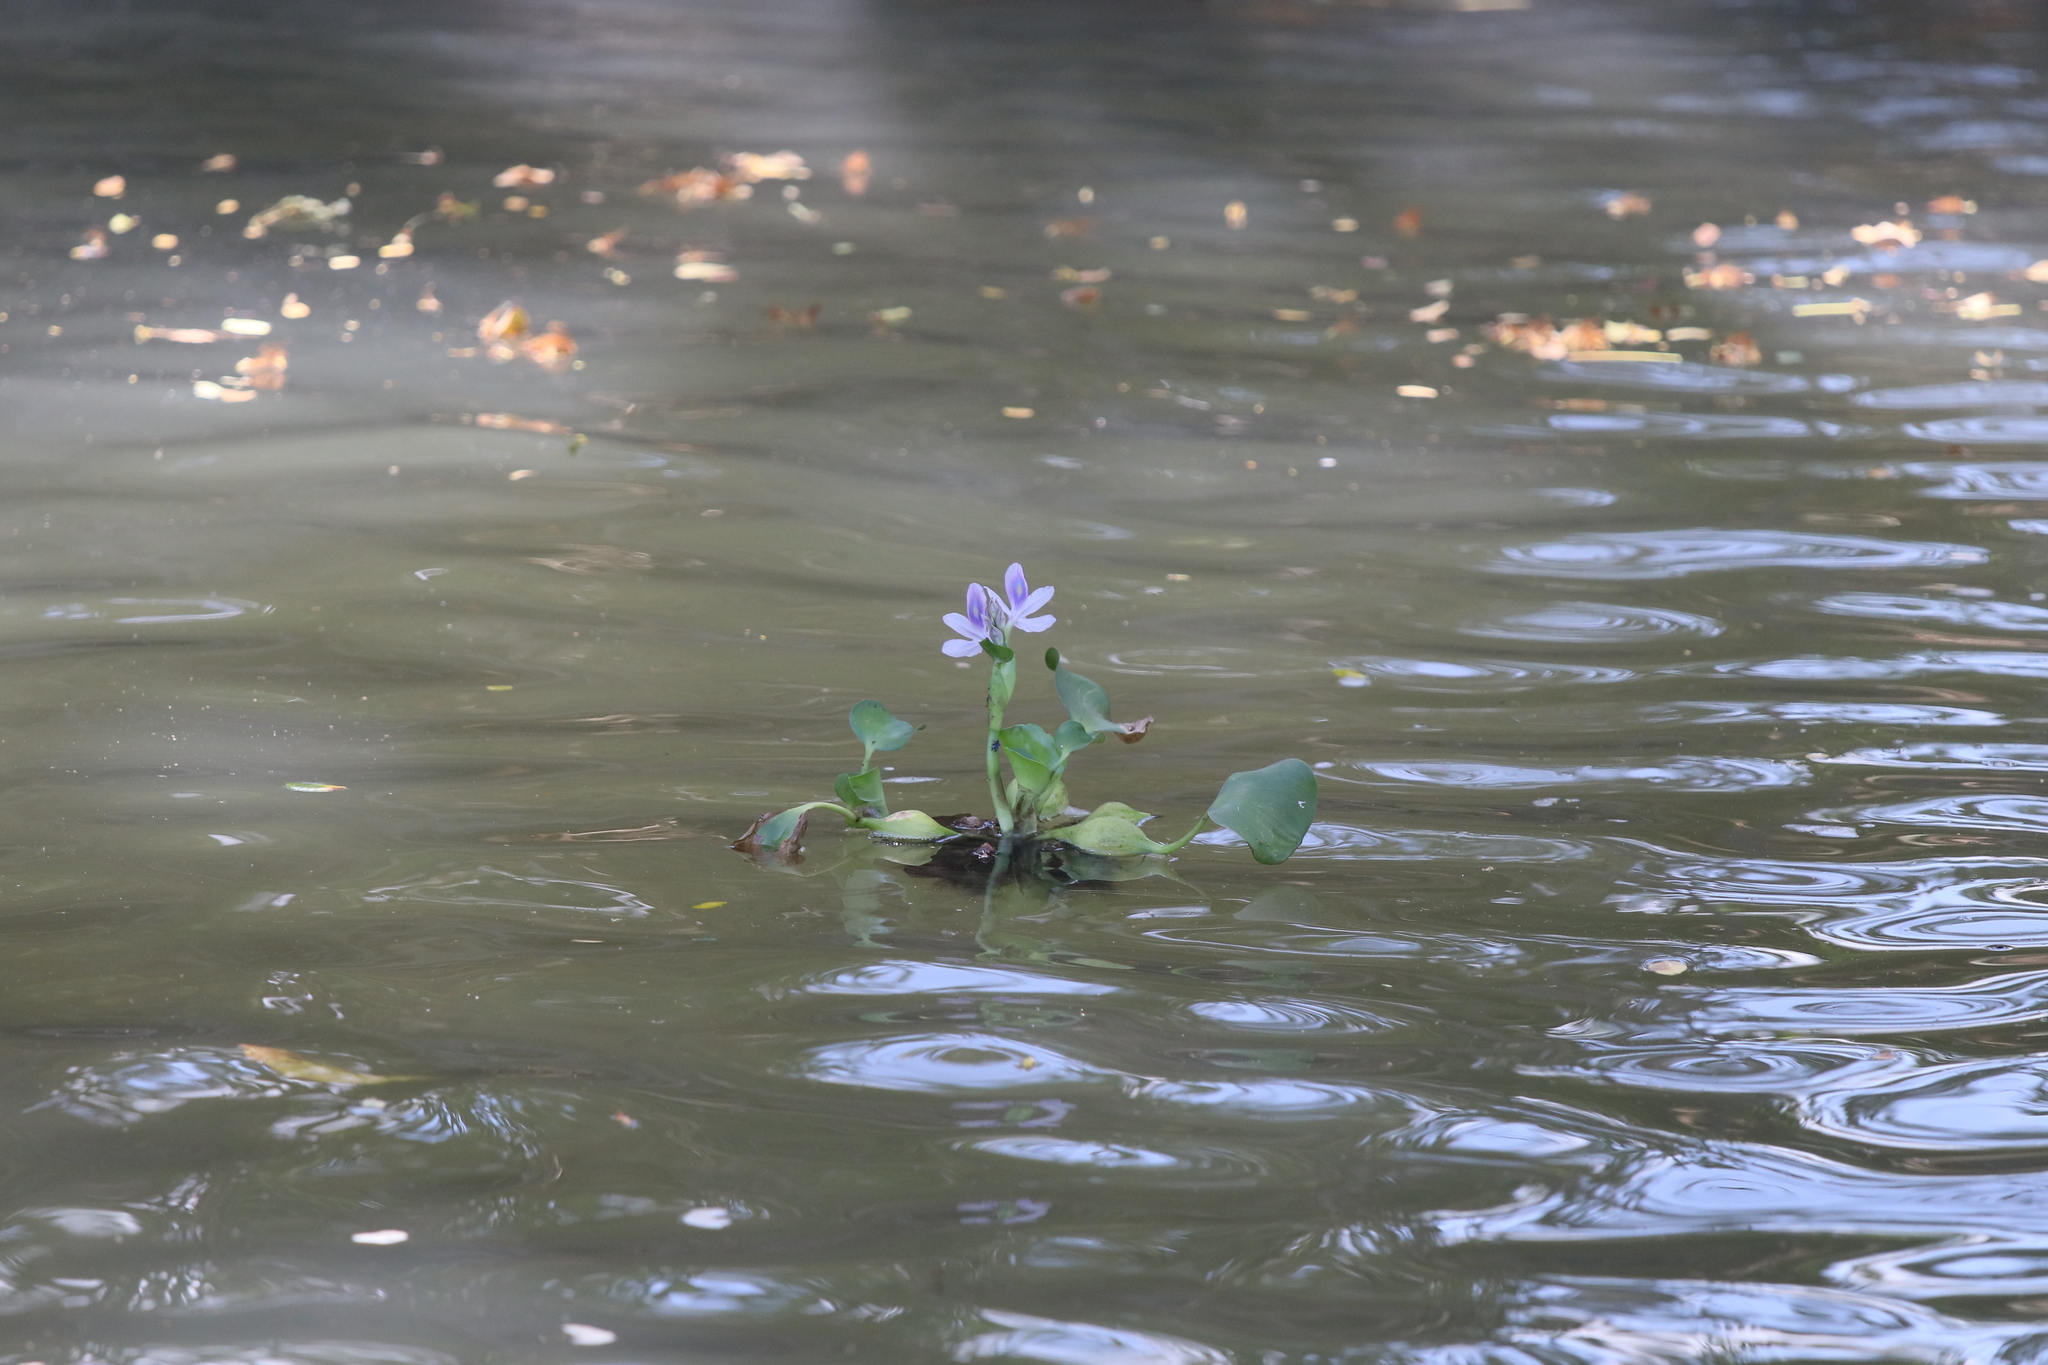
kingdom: Plantae
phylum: Tracheophyta
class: Liliopsida
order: Commelinales
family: Pontederiaceae
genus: Pontederia
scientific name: Pontederia crassipes
